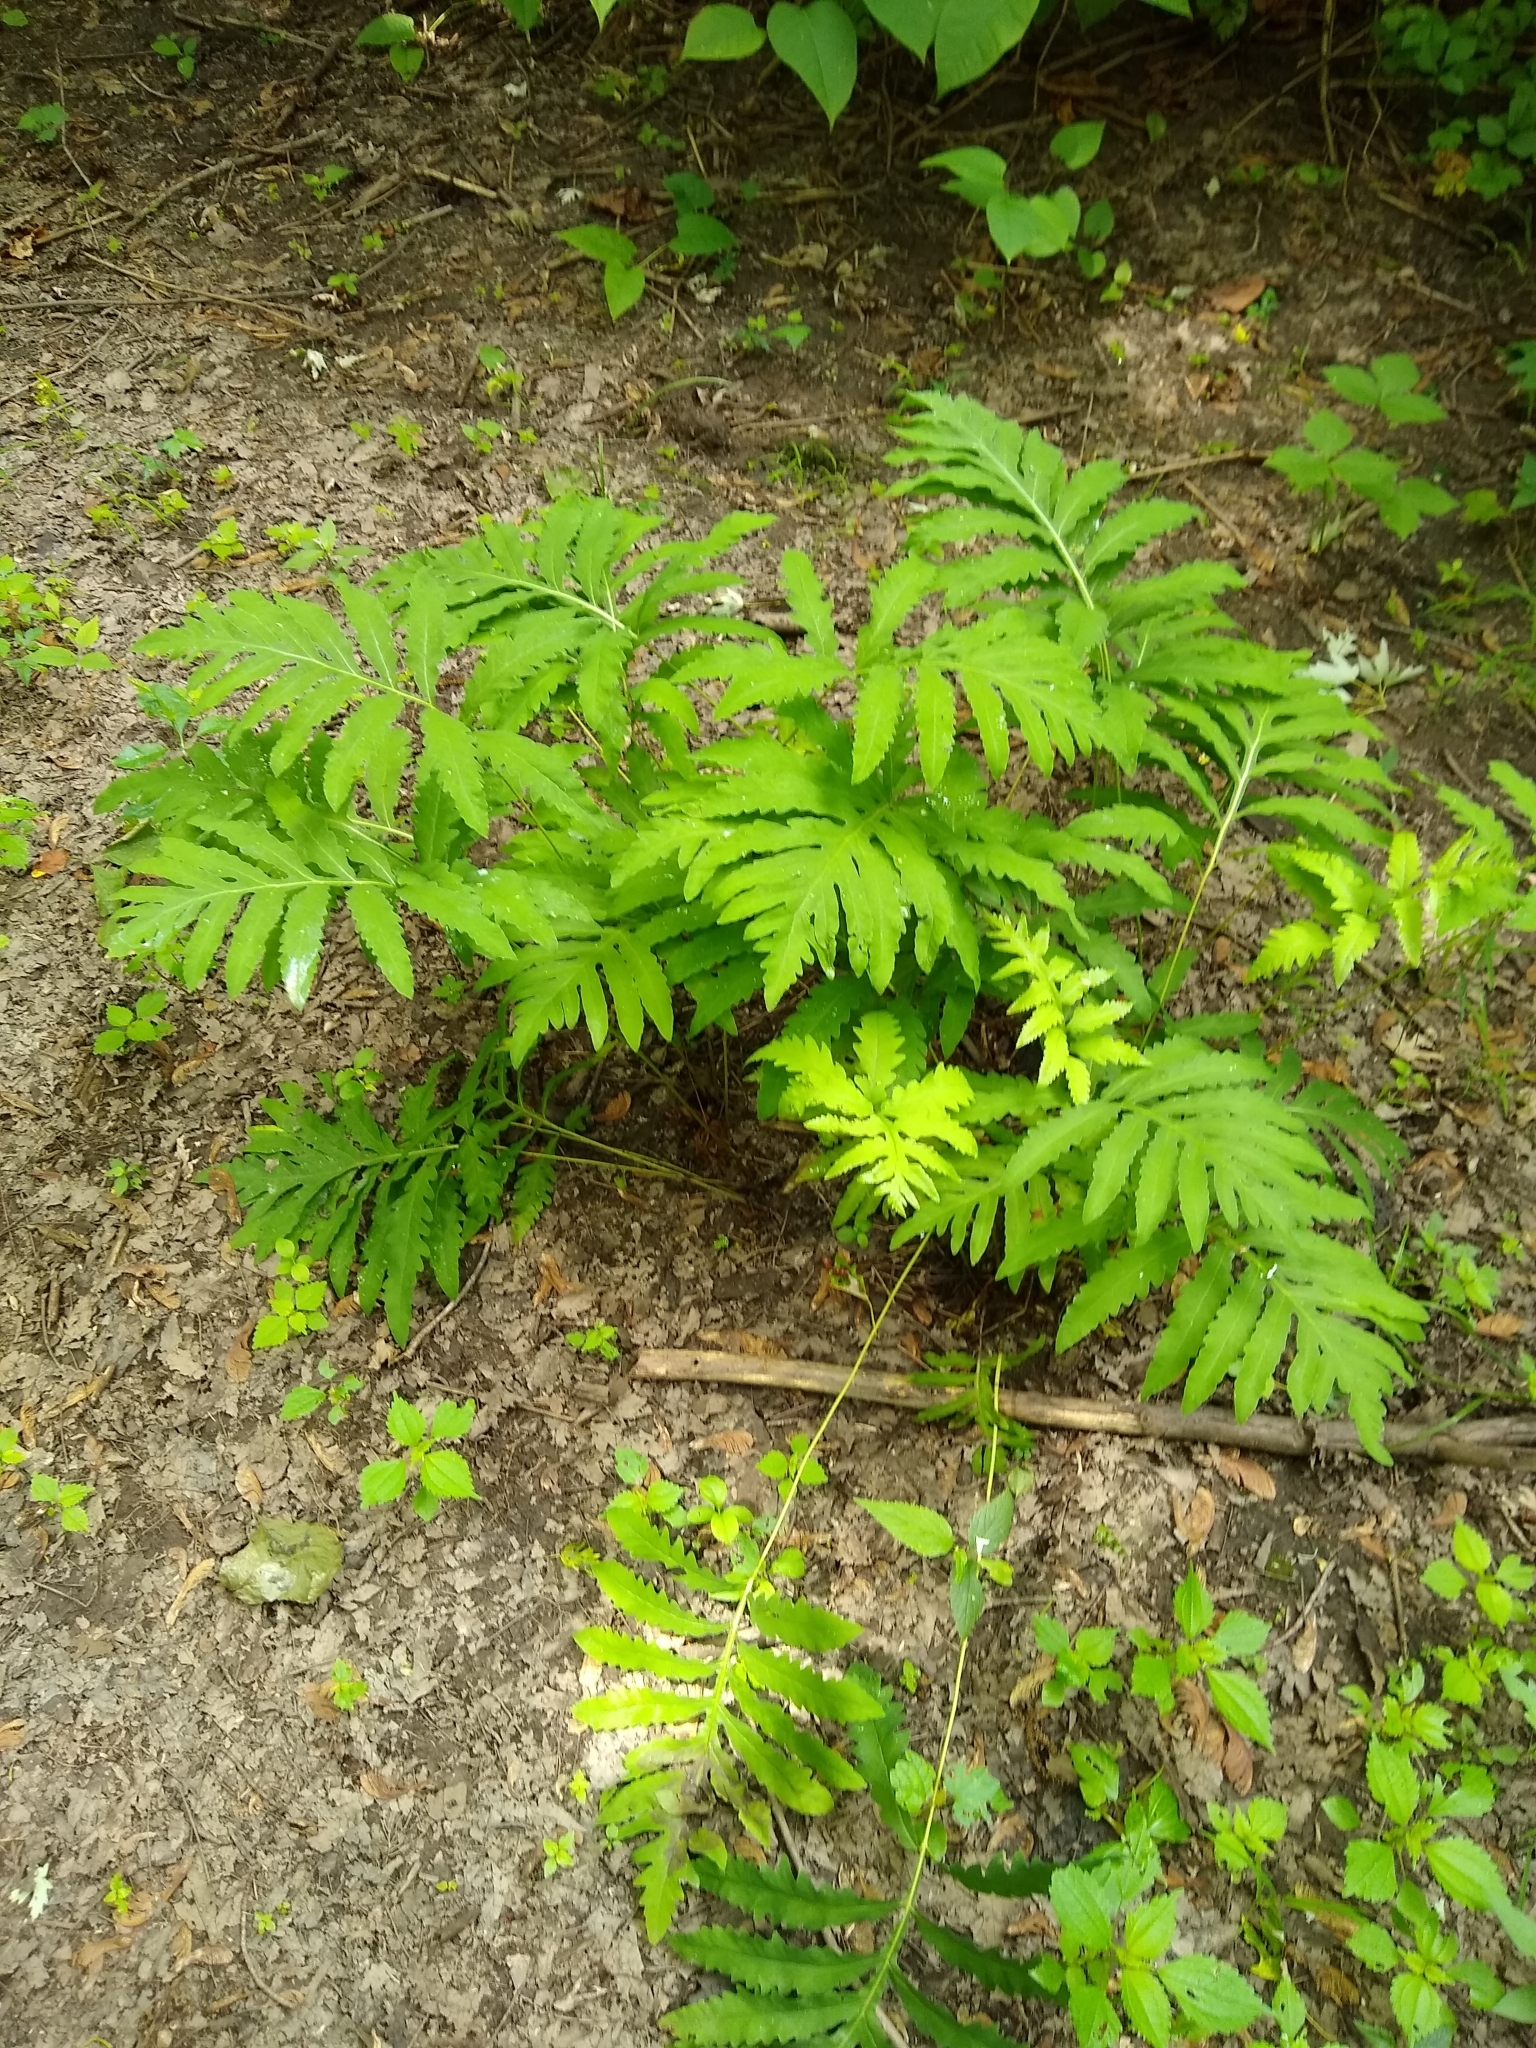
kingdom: Plantae
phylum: Tracheophyta
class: Polypodiopsida
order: Polypodiales
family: Onocleaceae
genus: Onoclea
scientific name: Onoclea sensibilis
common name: Sensitive fern
